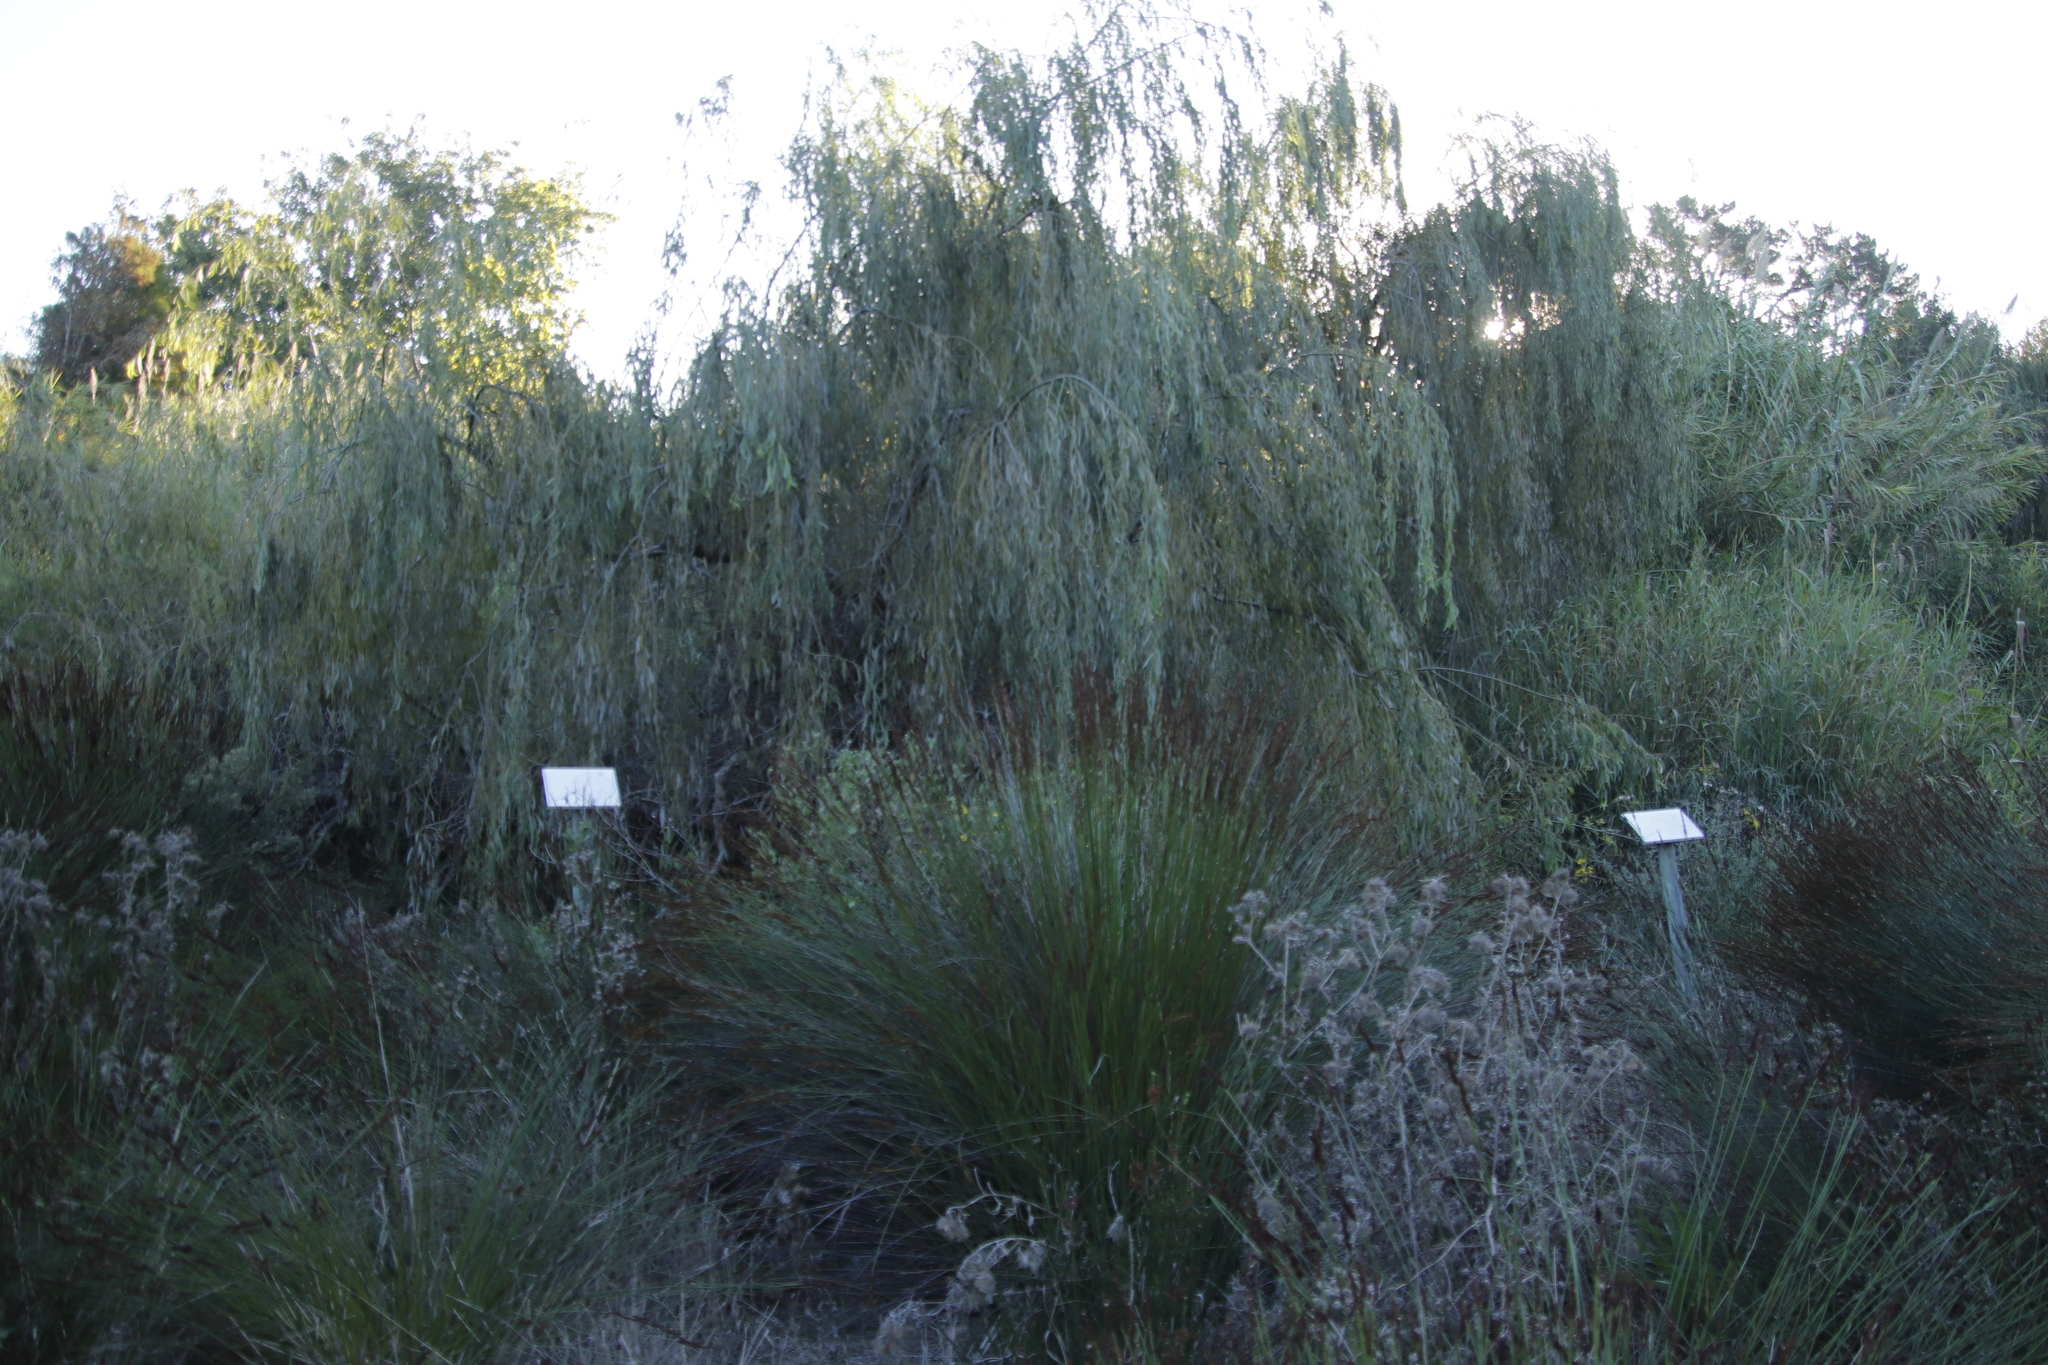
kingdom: Plantae
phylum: Tracheophyta
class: Liliopsida
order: Poales
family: Restionaceae
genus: Elegia
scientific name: Elegia tectorum
